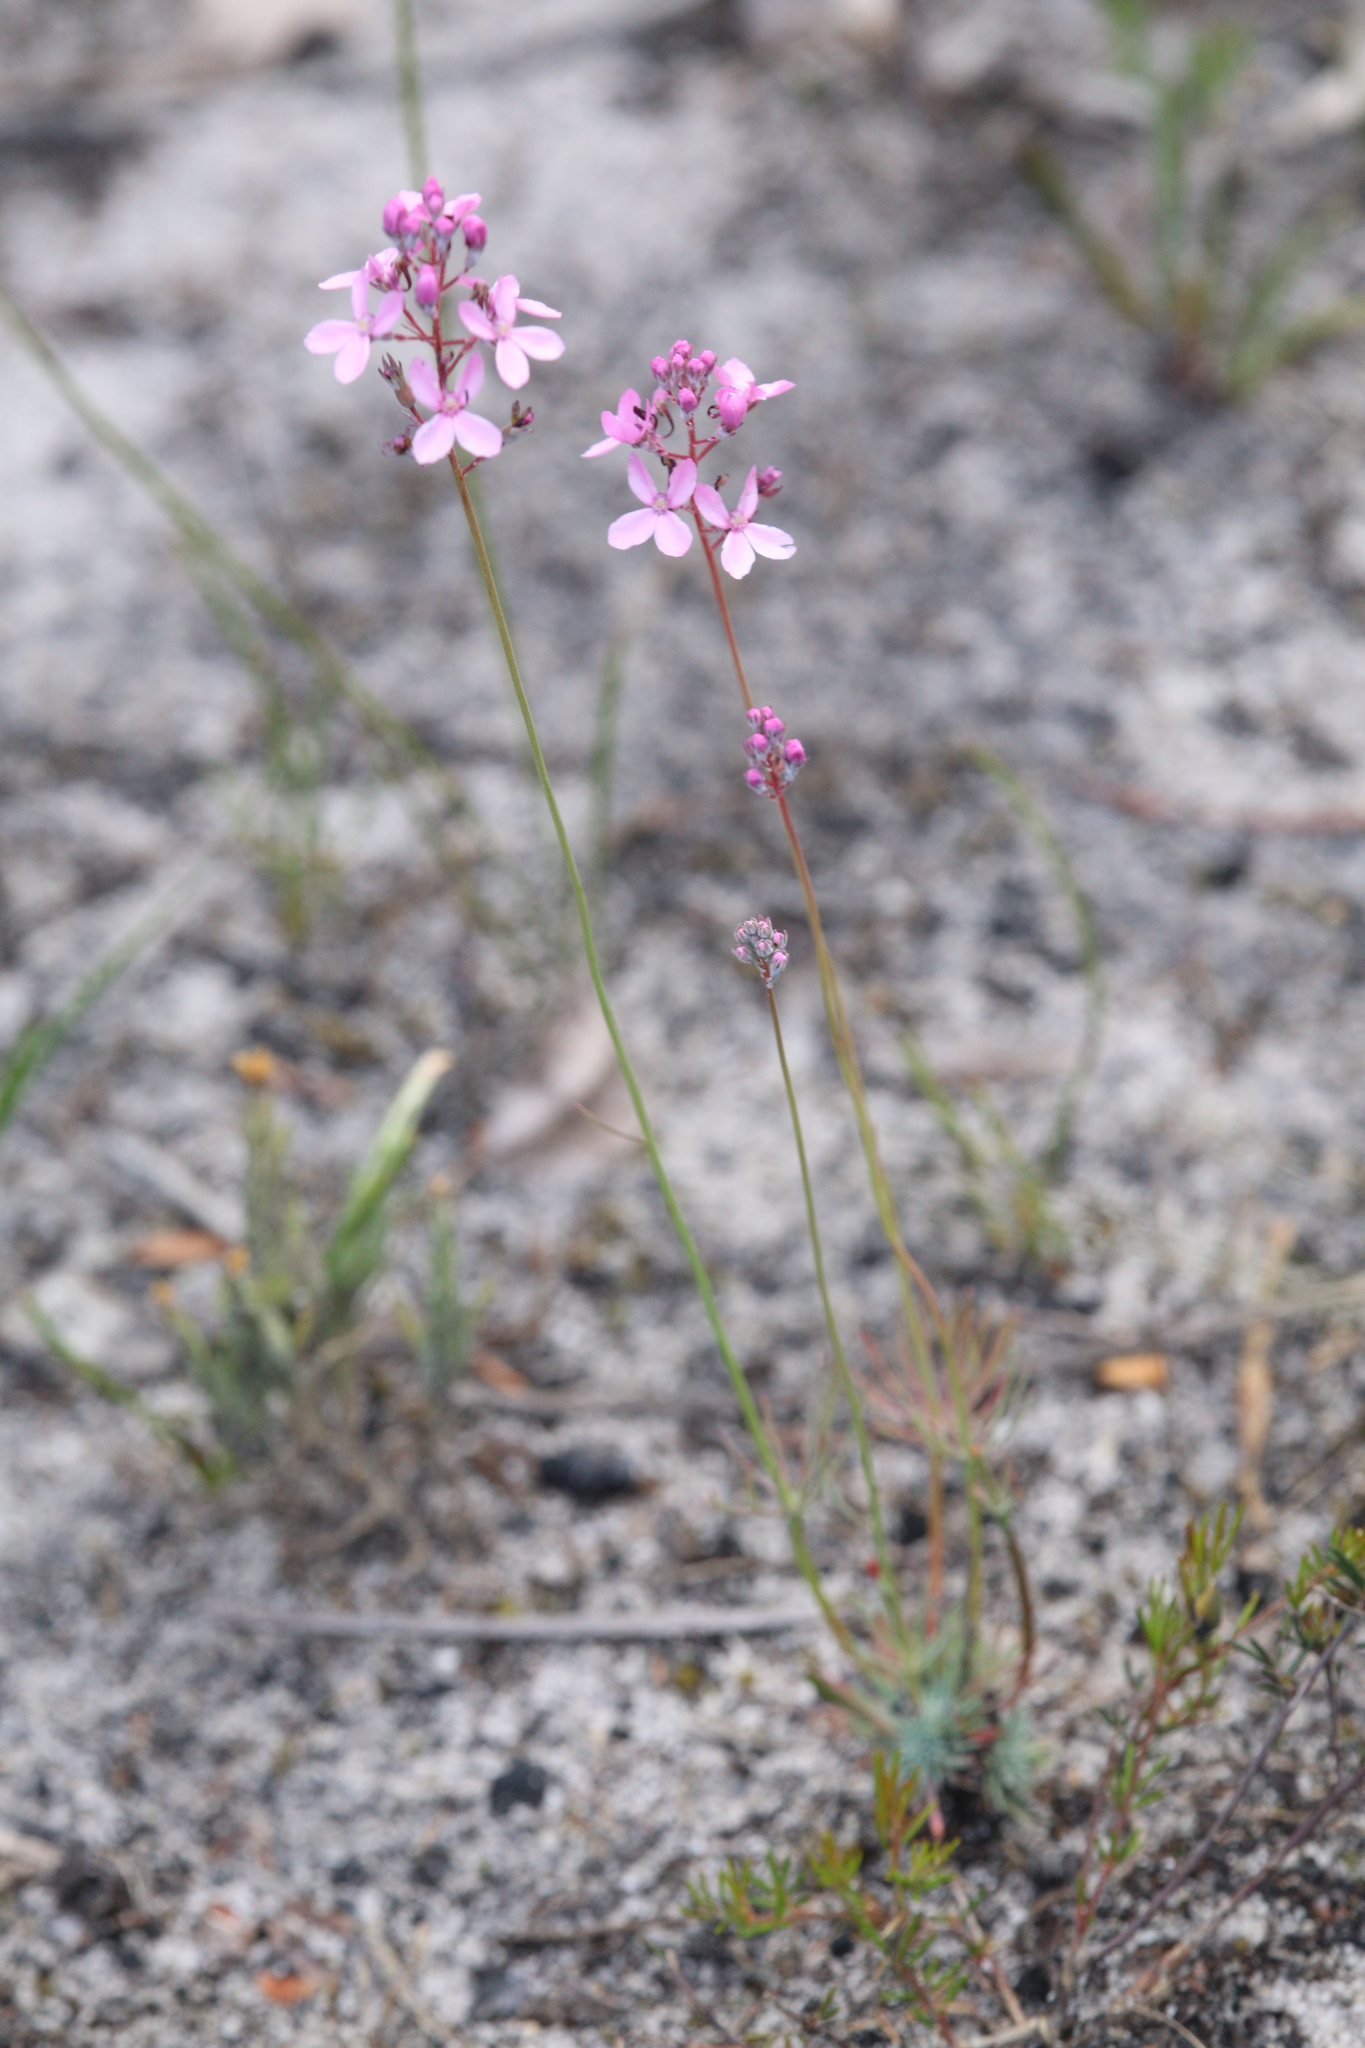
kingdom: Plantae
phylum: Tracheophyta
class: Magnoliopsida
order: Asterales
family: Stylidiaceae
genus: Stylidium
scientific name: Stylidium tenue
